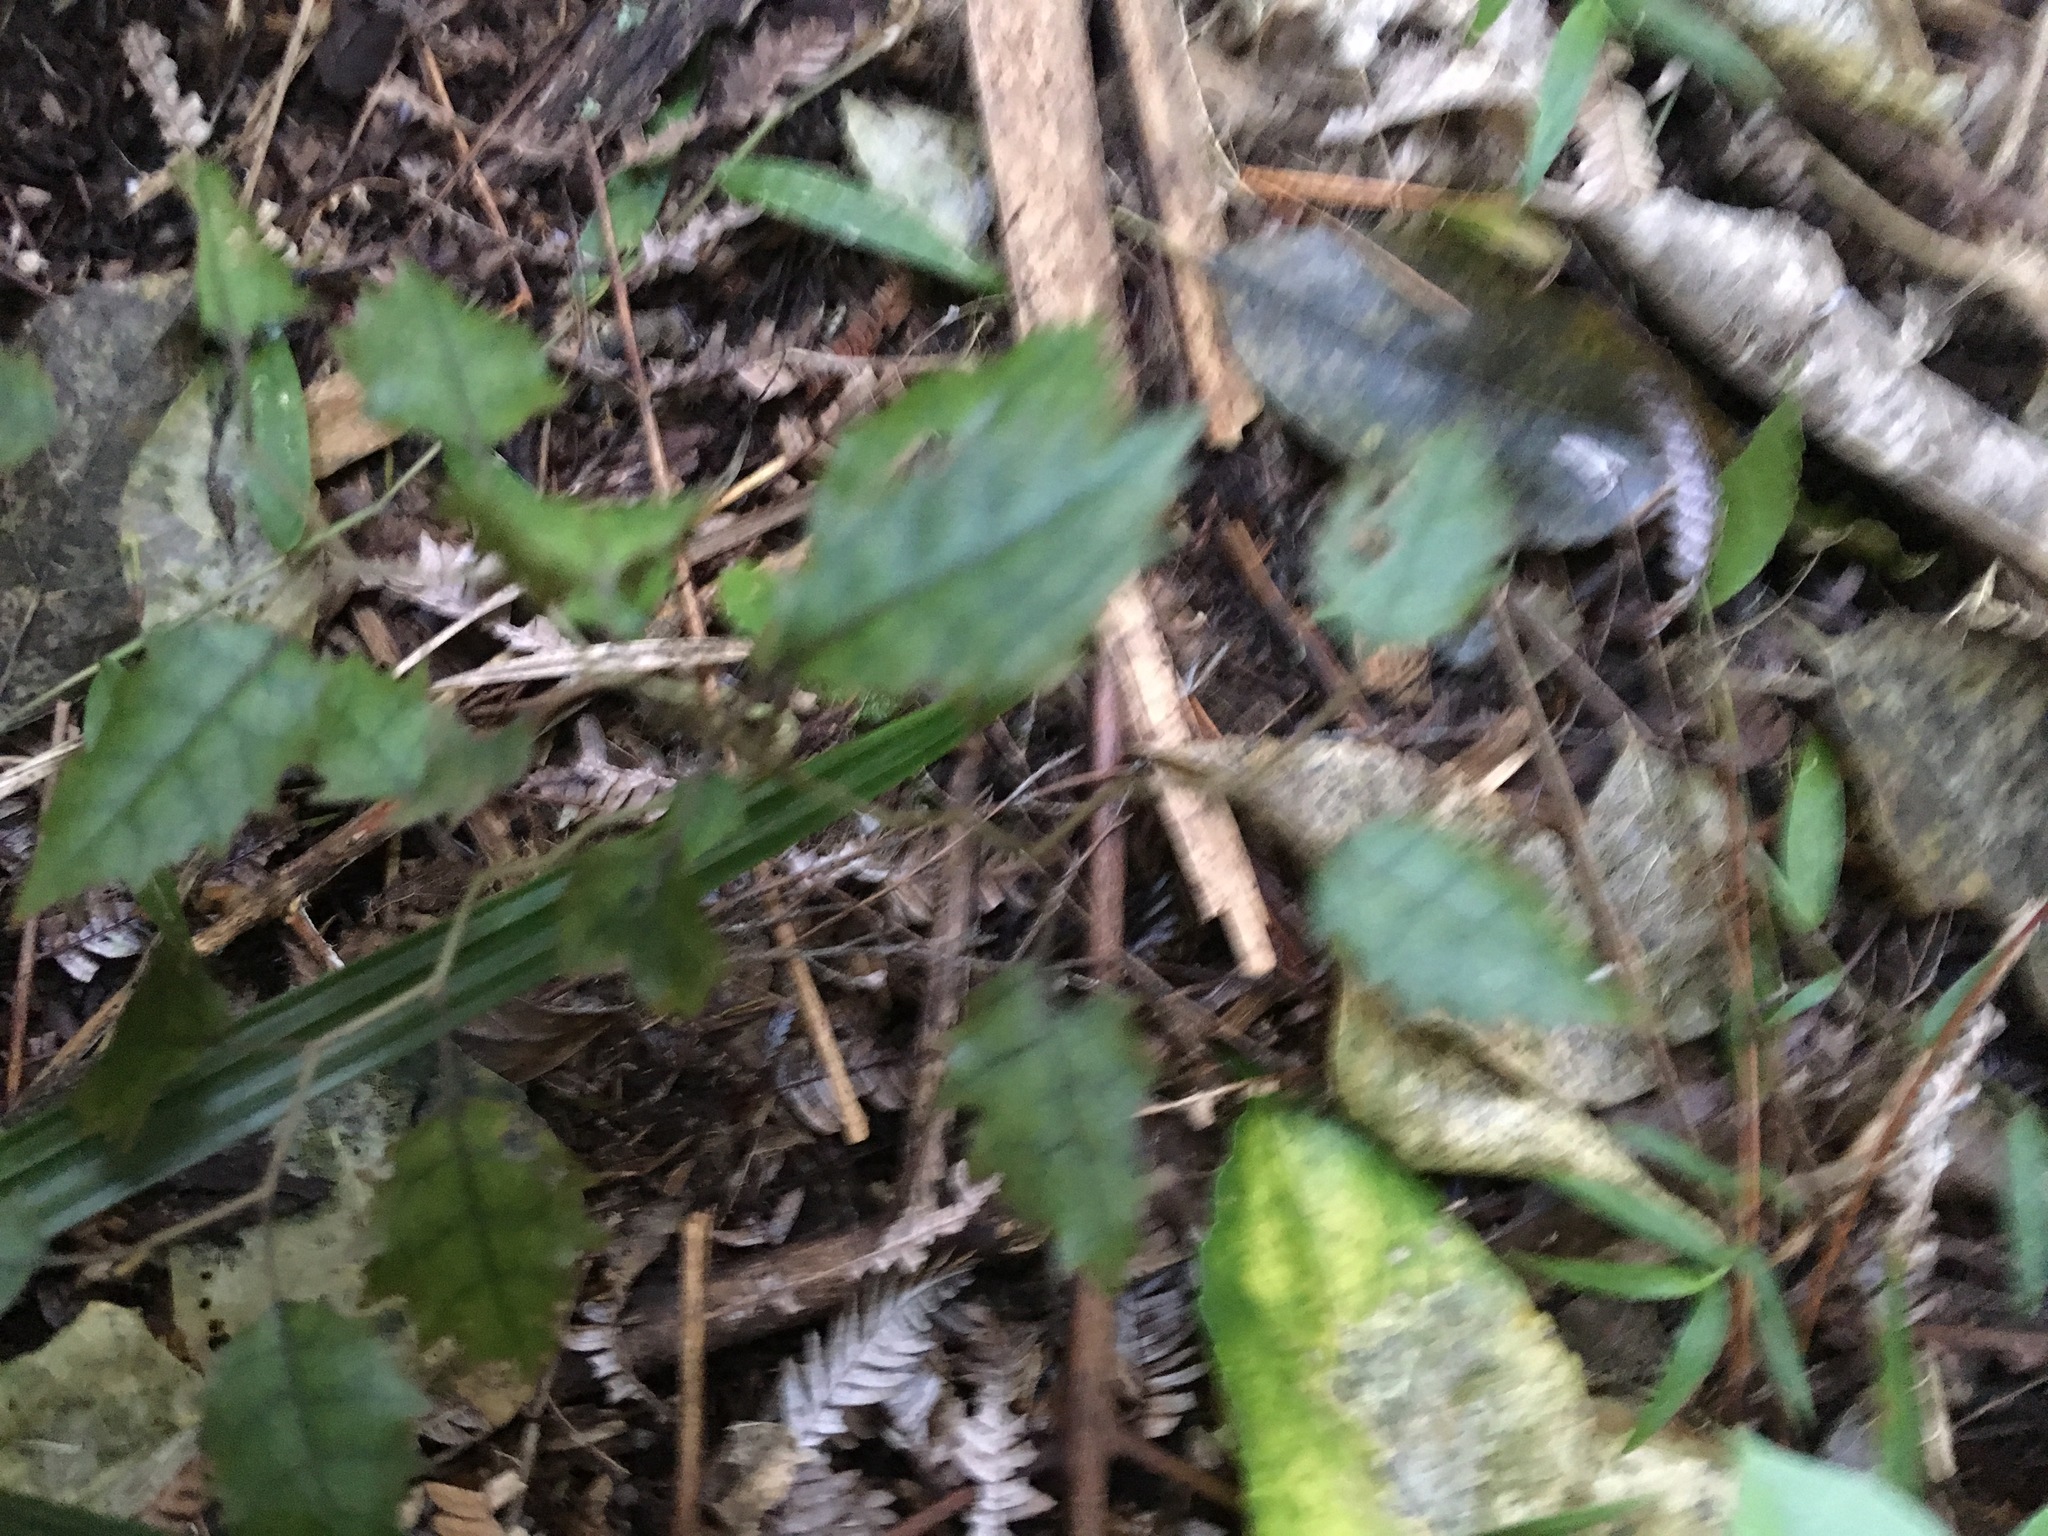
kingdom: Plantae
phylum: Tracheophyta
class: Magnoliopsida
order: Asterales
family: Rousseaceae
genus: Carpodetus
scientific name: Carpodetus serratus
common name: White mapau
